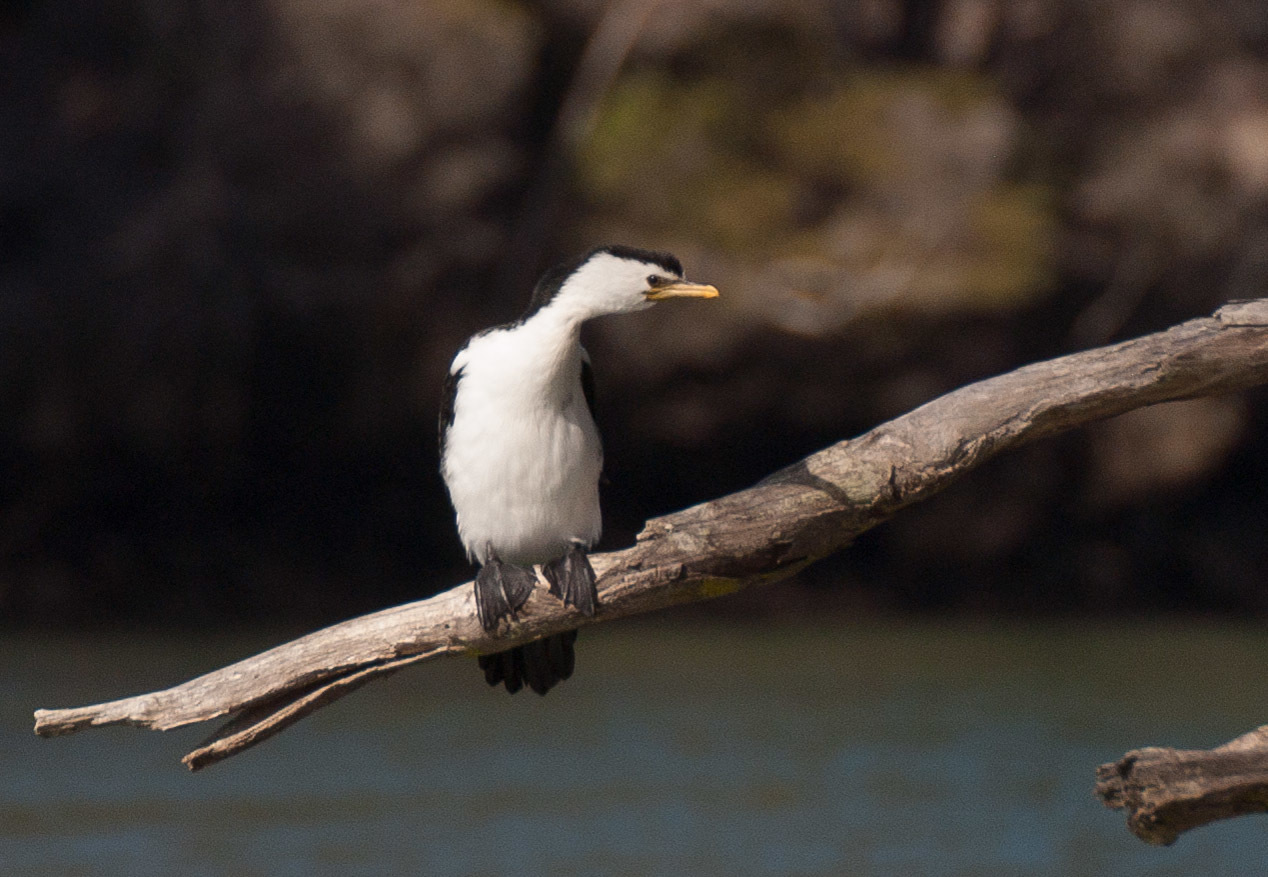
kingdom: Animalia
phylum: Chordata
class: Aves
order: Suliformes
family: Phalacrocoracidae
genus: Microcarbo
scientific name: Microcarbo melanoleucos
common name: Little pied cormorant
